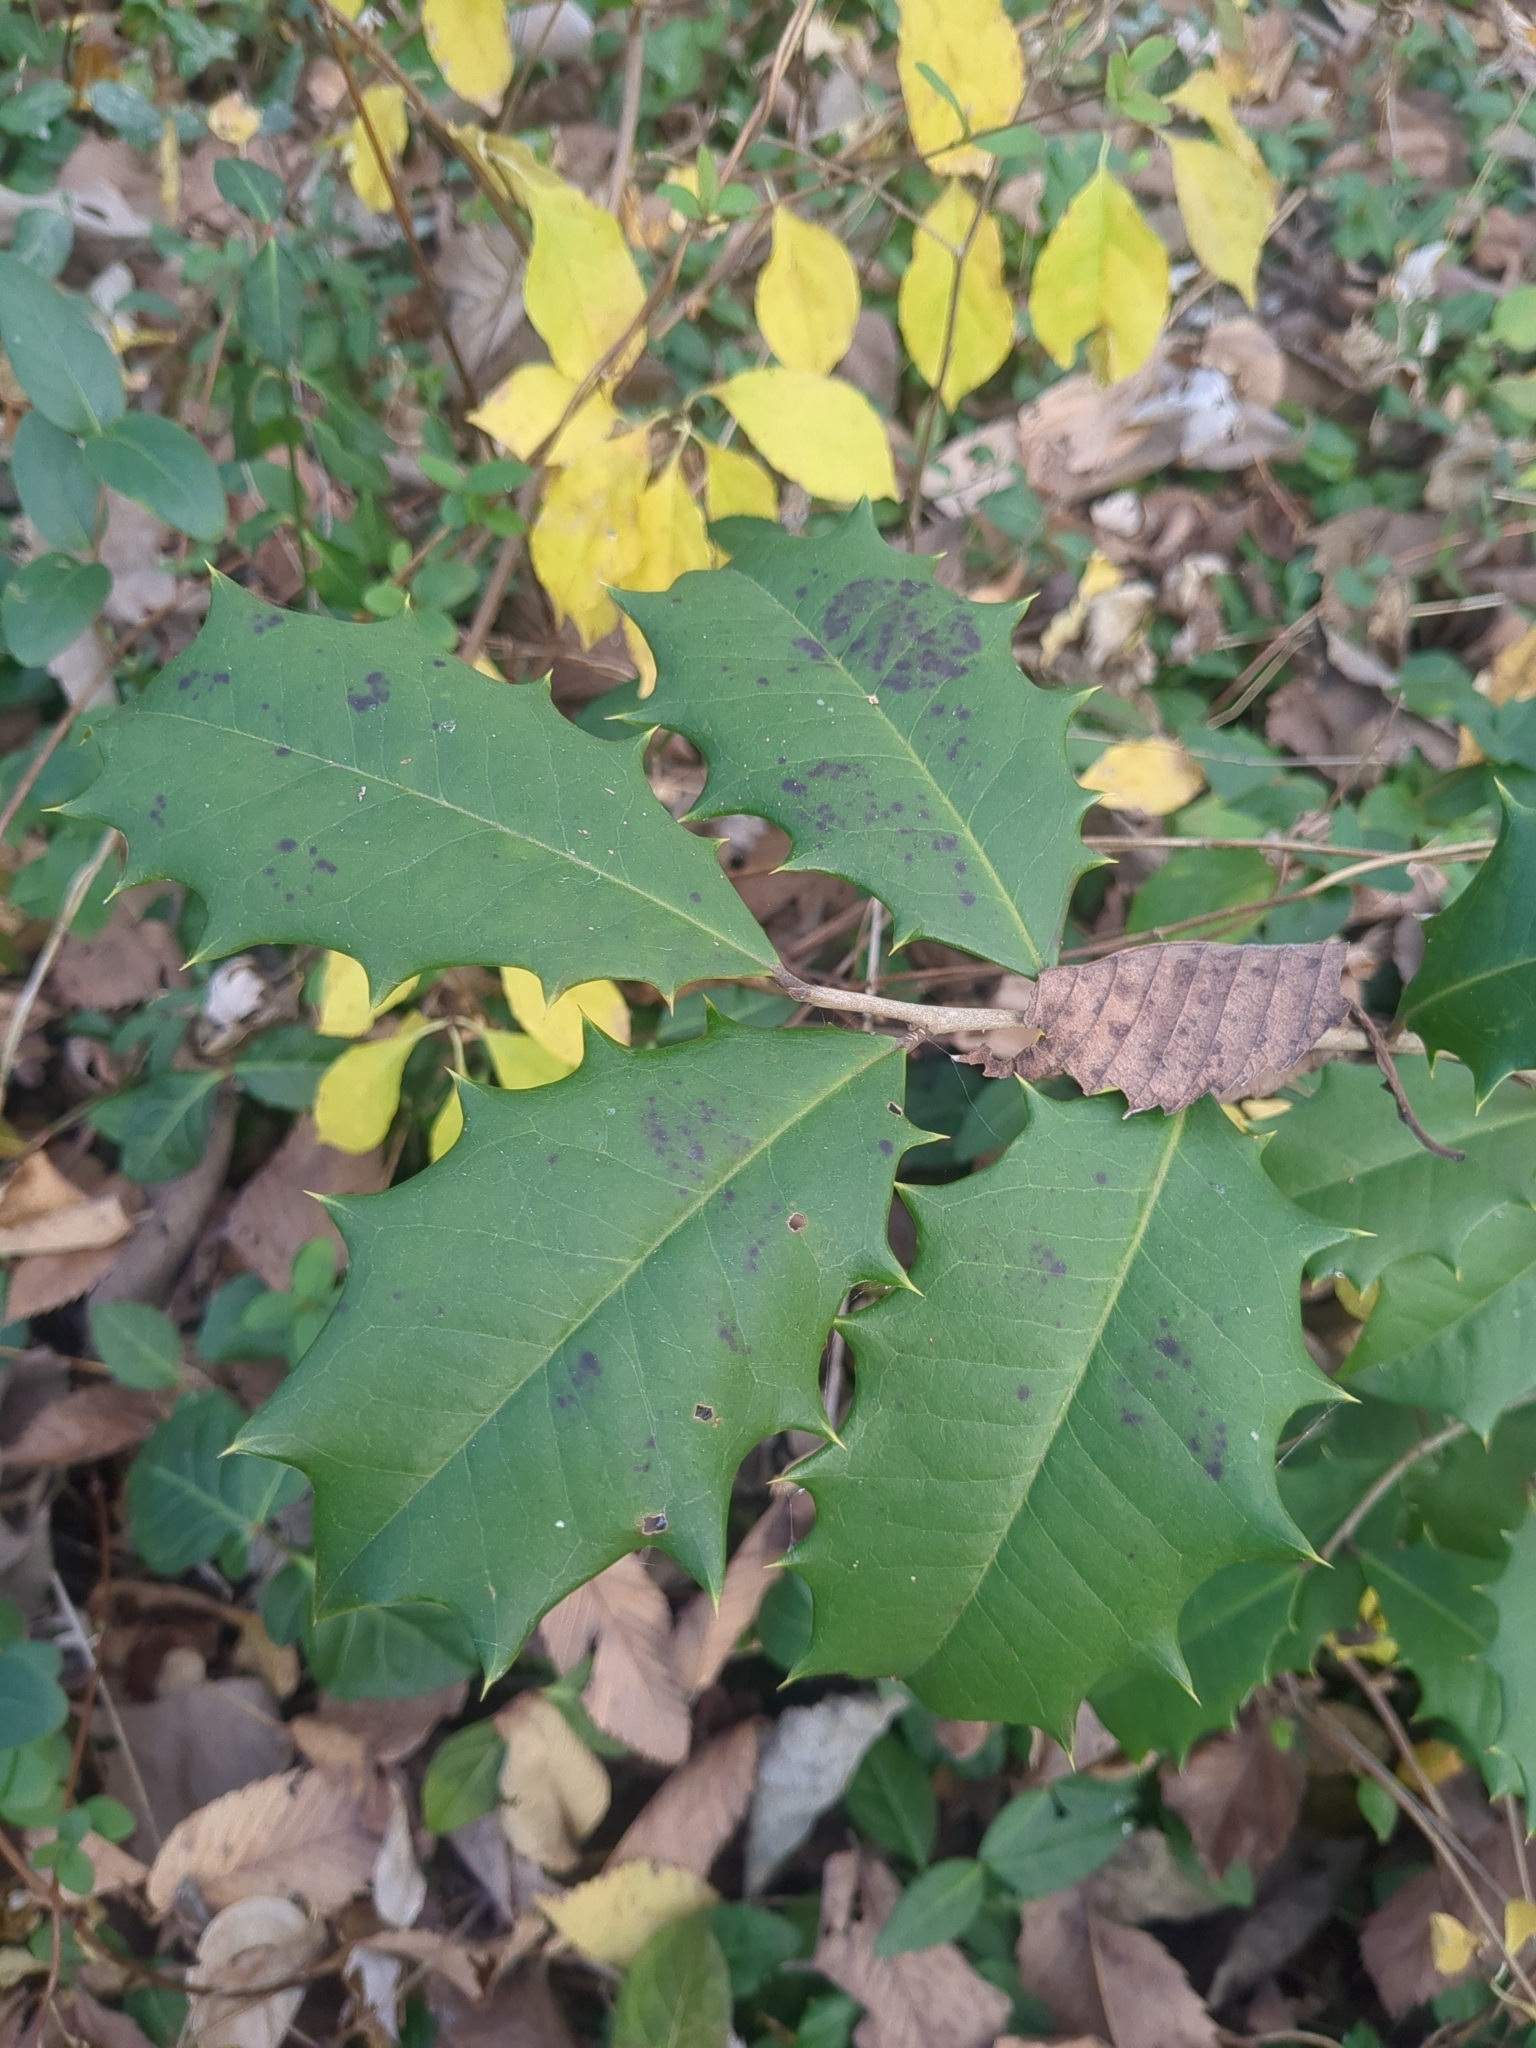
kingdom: Plantae
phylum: Tracheophyta
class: Magnoliopsida
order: Aquifoliales
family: Aquifoliaceae
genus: Ilex
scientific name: Ilex opaca
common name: American holly
